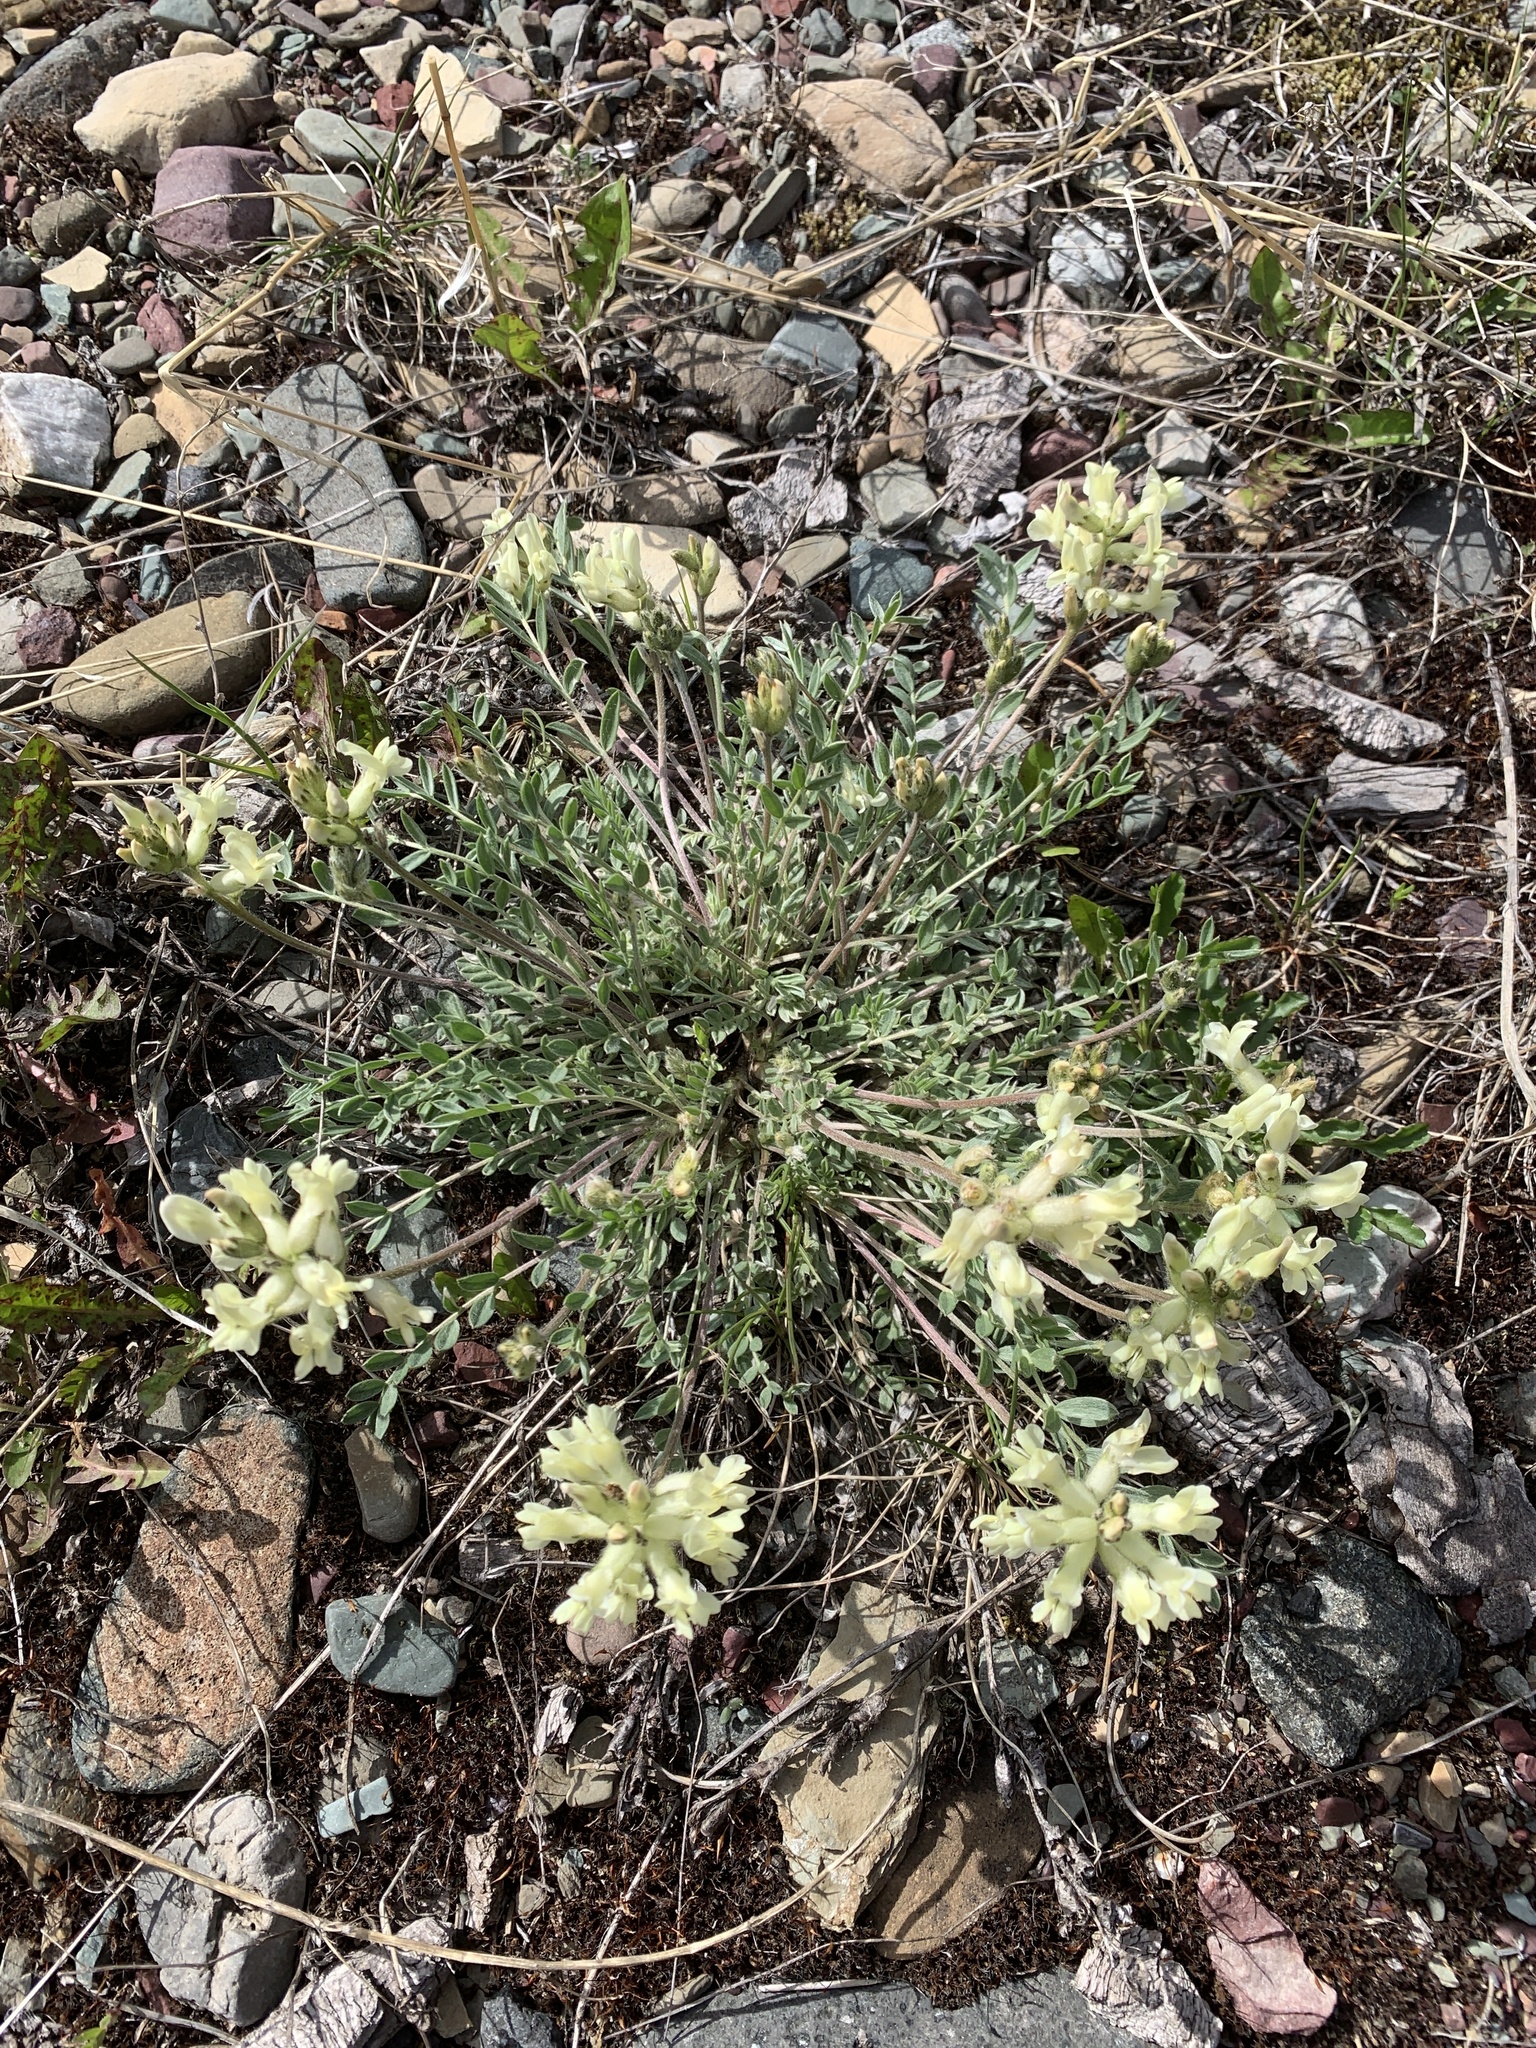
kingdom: Plantae
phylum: Tracheophyta
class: Magnoliopsida
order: Fabales
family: Fabaceae
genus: Oxytropis
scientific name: Oxytropis sericea
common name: Silky locoweed
